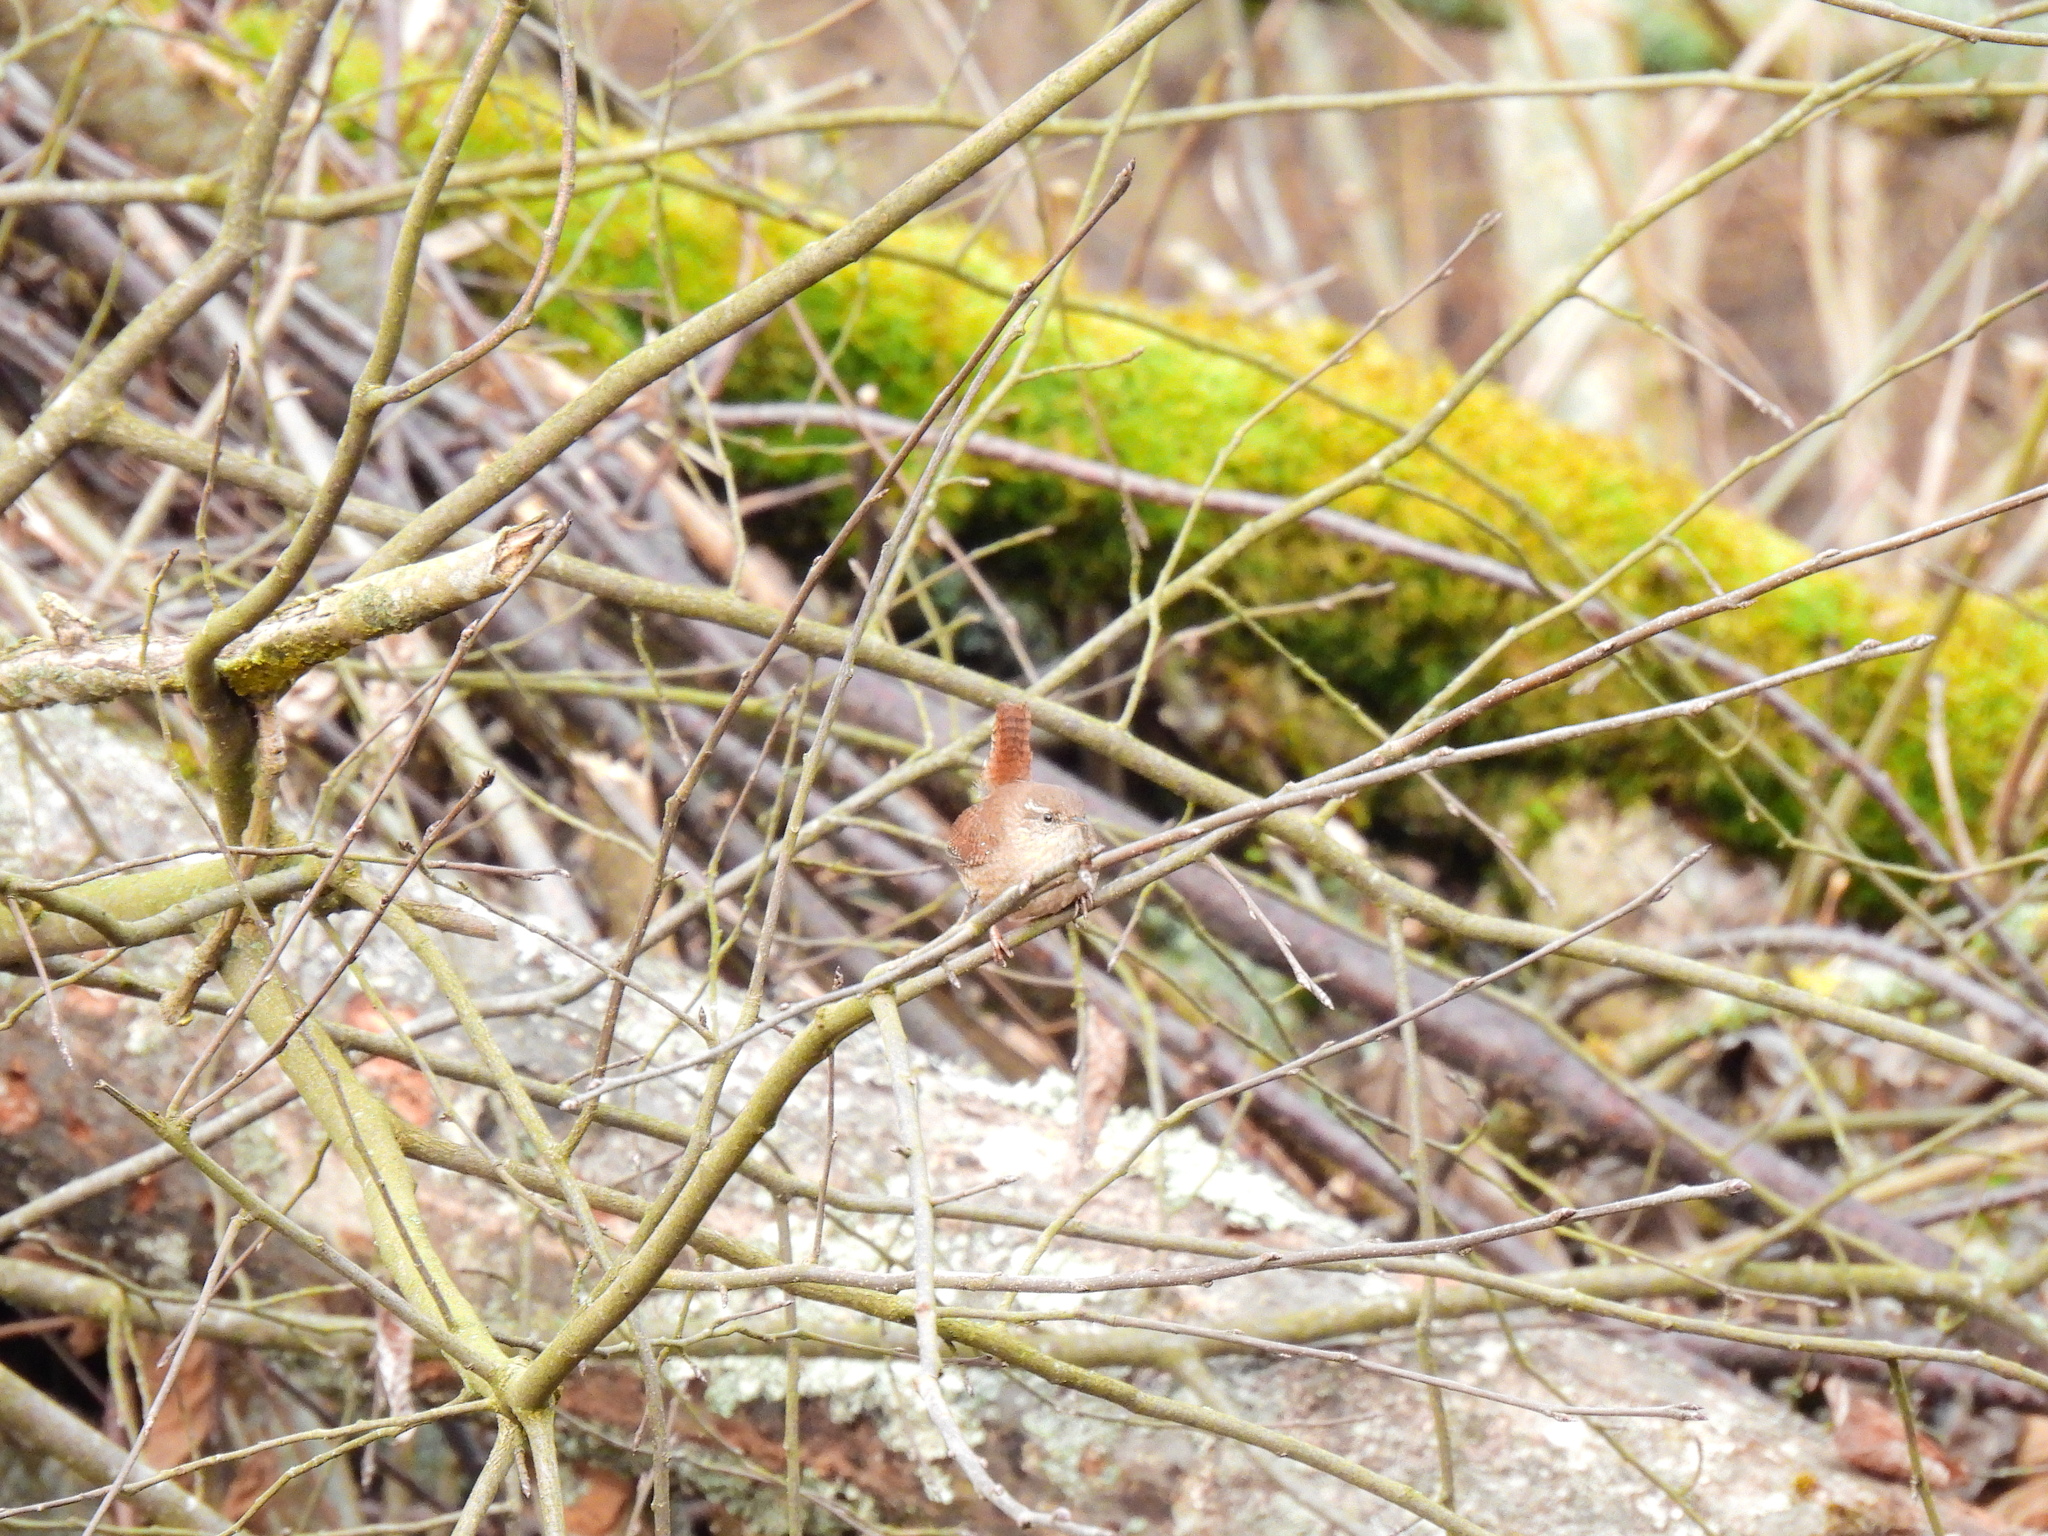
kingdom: Animalia
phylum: Chordata
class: Aves
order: Passeriformes
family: Troglodytidae
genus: Troglodytes
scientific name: Troglodytes troglodytes
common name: Eurasian wren
